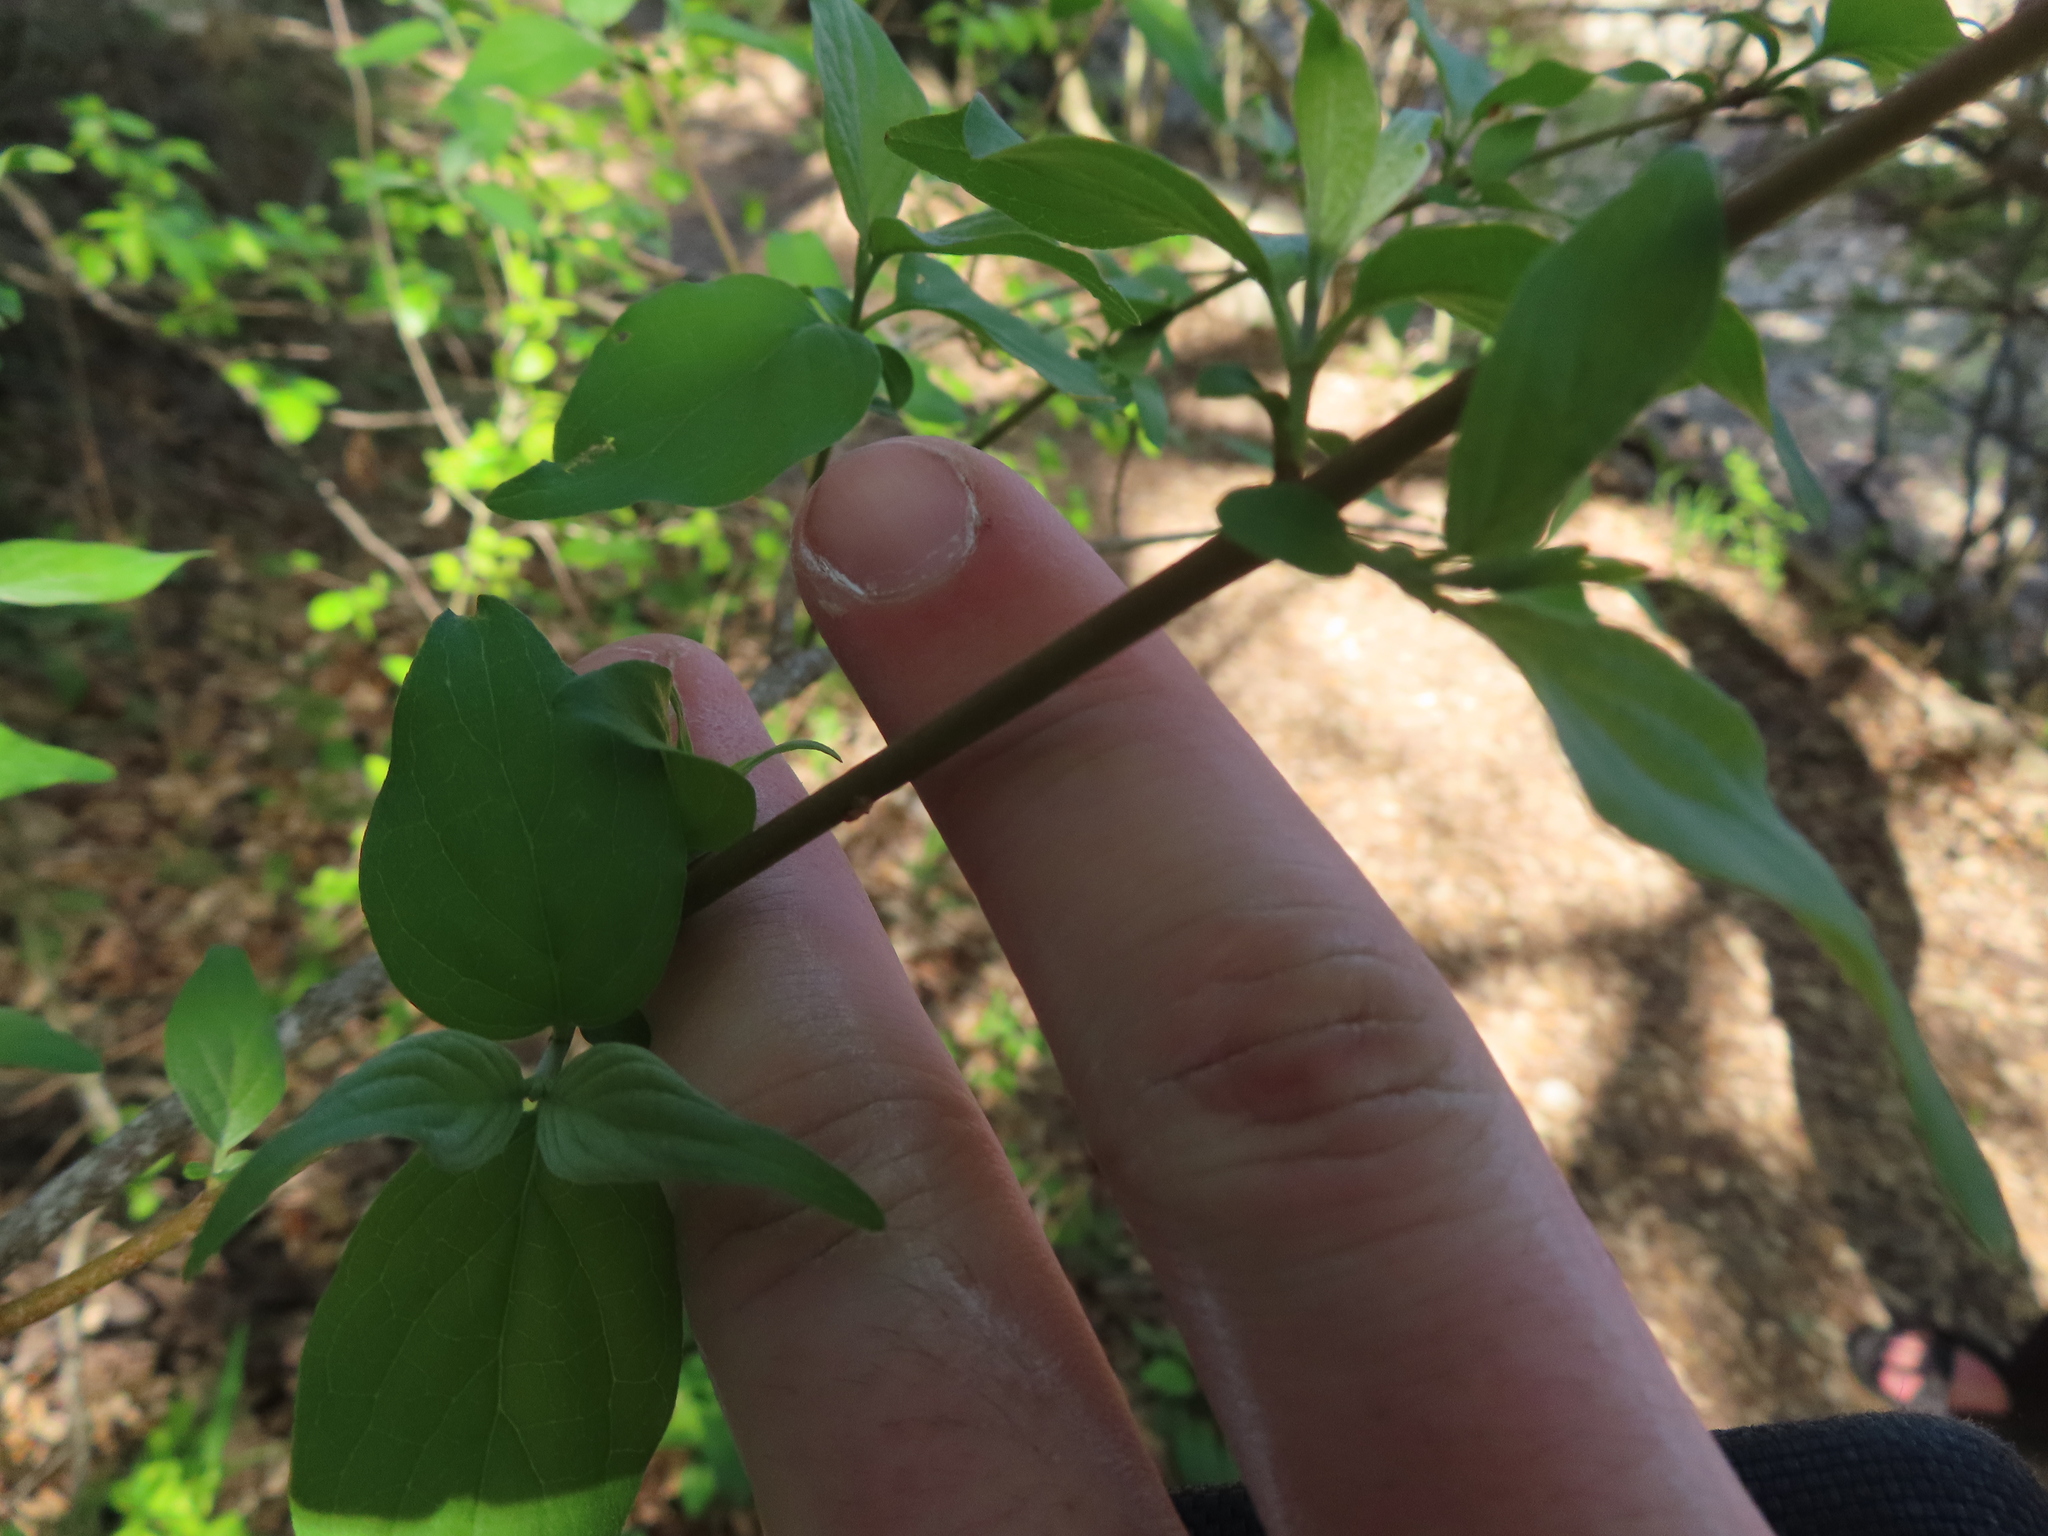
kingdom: Plantae
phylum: Tracheophyta
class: Magnoliopsida
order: Cornales
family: Cornaceae
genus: Cornus
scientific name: Cornus drummondii
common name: Rough-leaf dogwood
